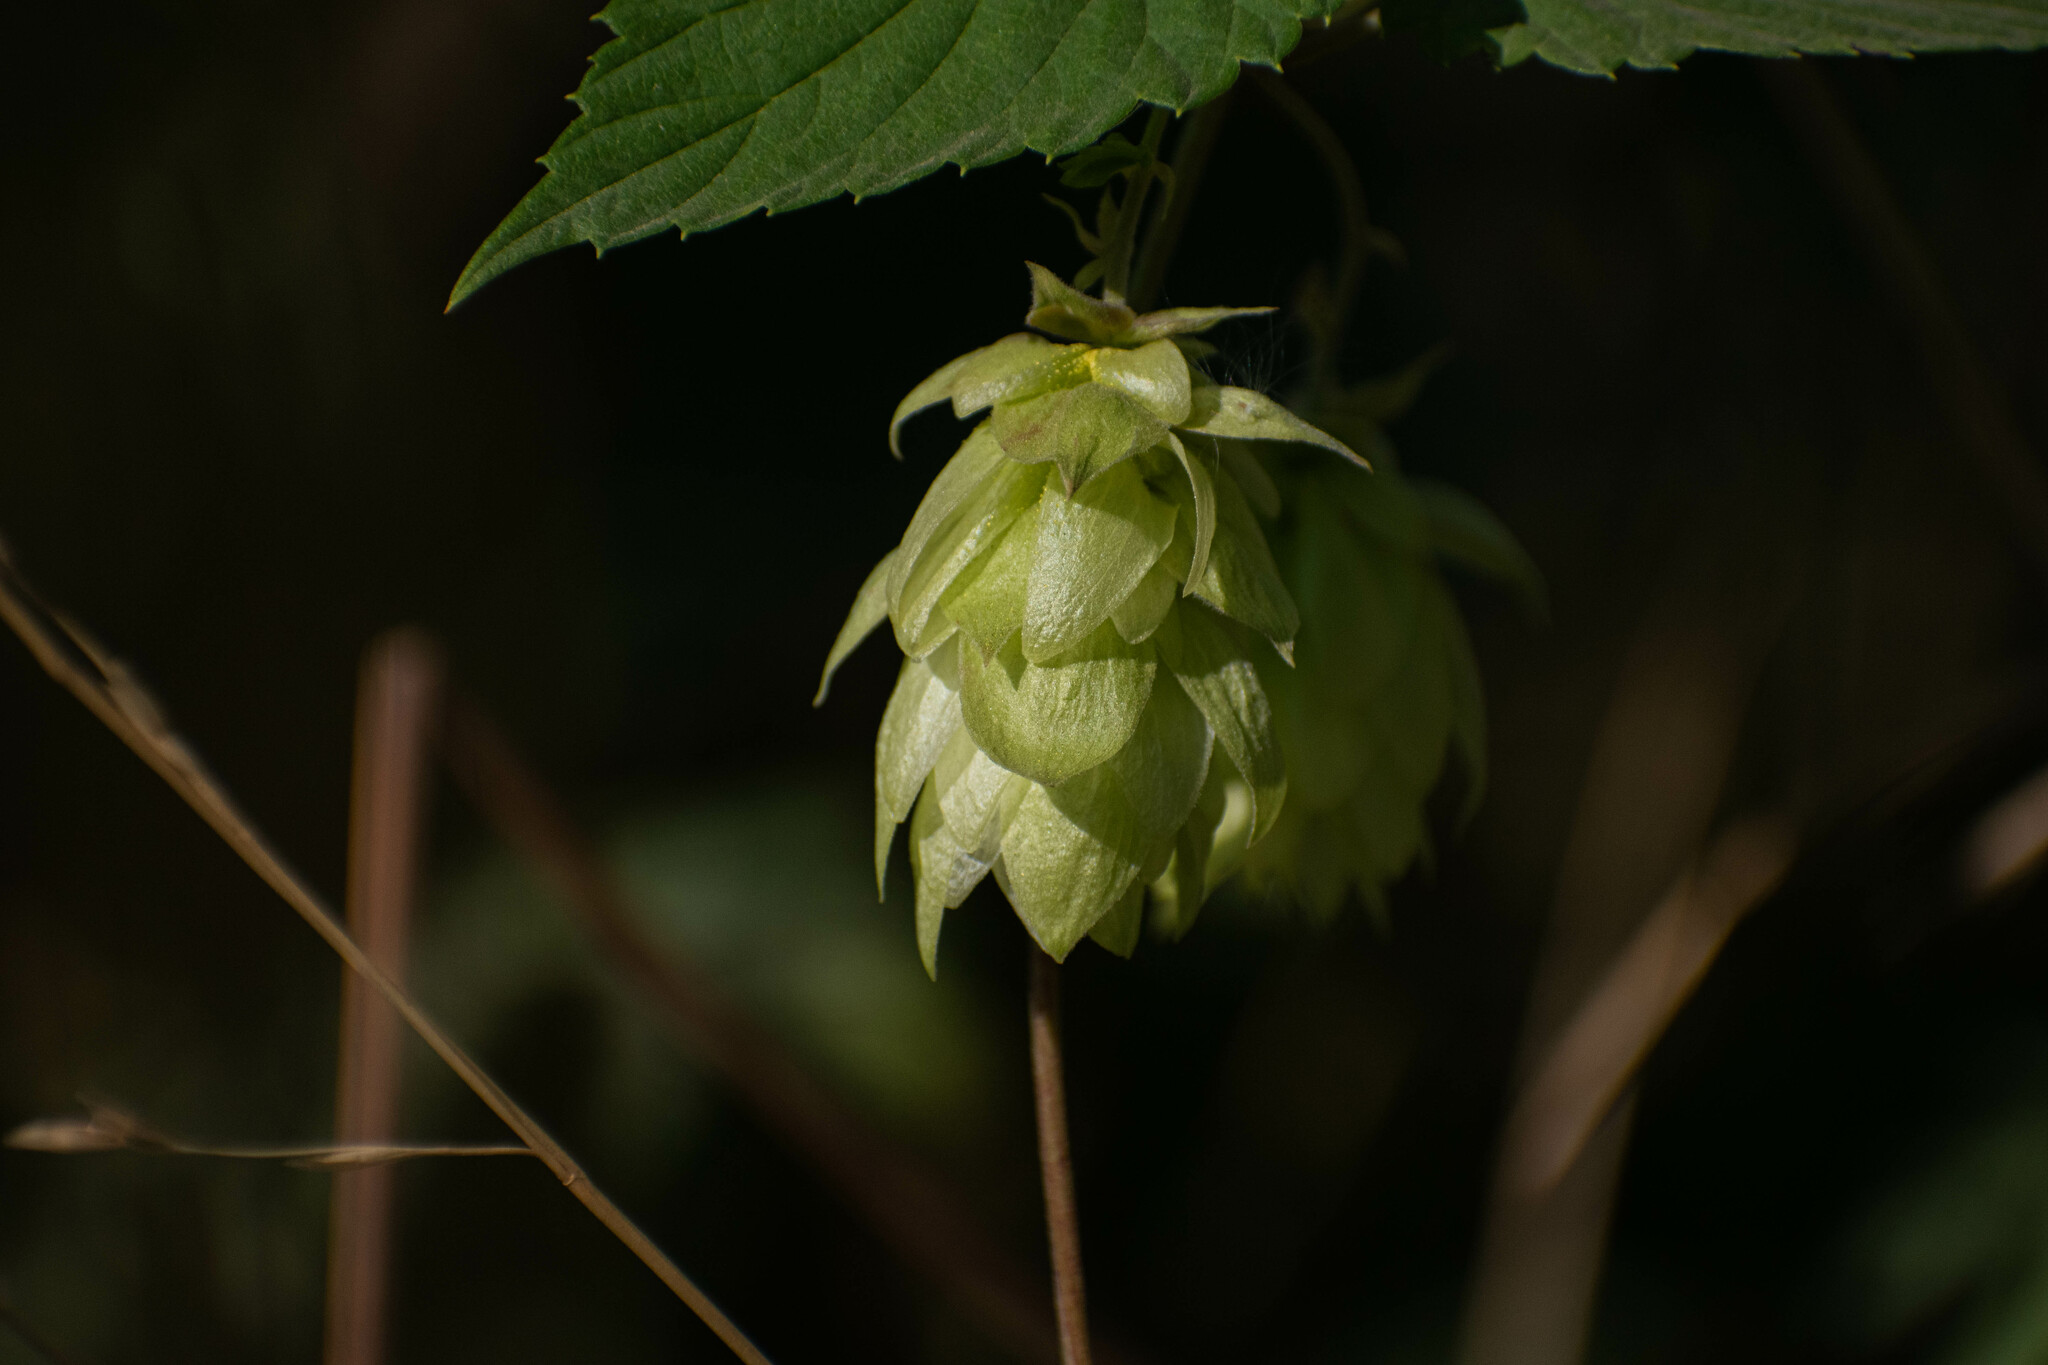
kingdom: Plantae
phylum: Tracheophyta
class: Magnoliopsida
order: Rosales
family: Cannabaceae
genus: Humulus
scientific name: Humulus lupulus
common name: Hop
